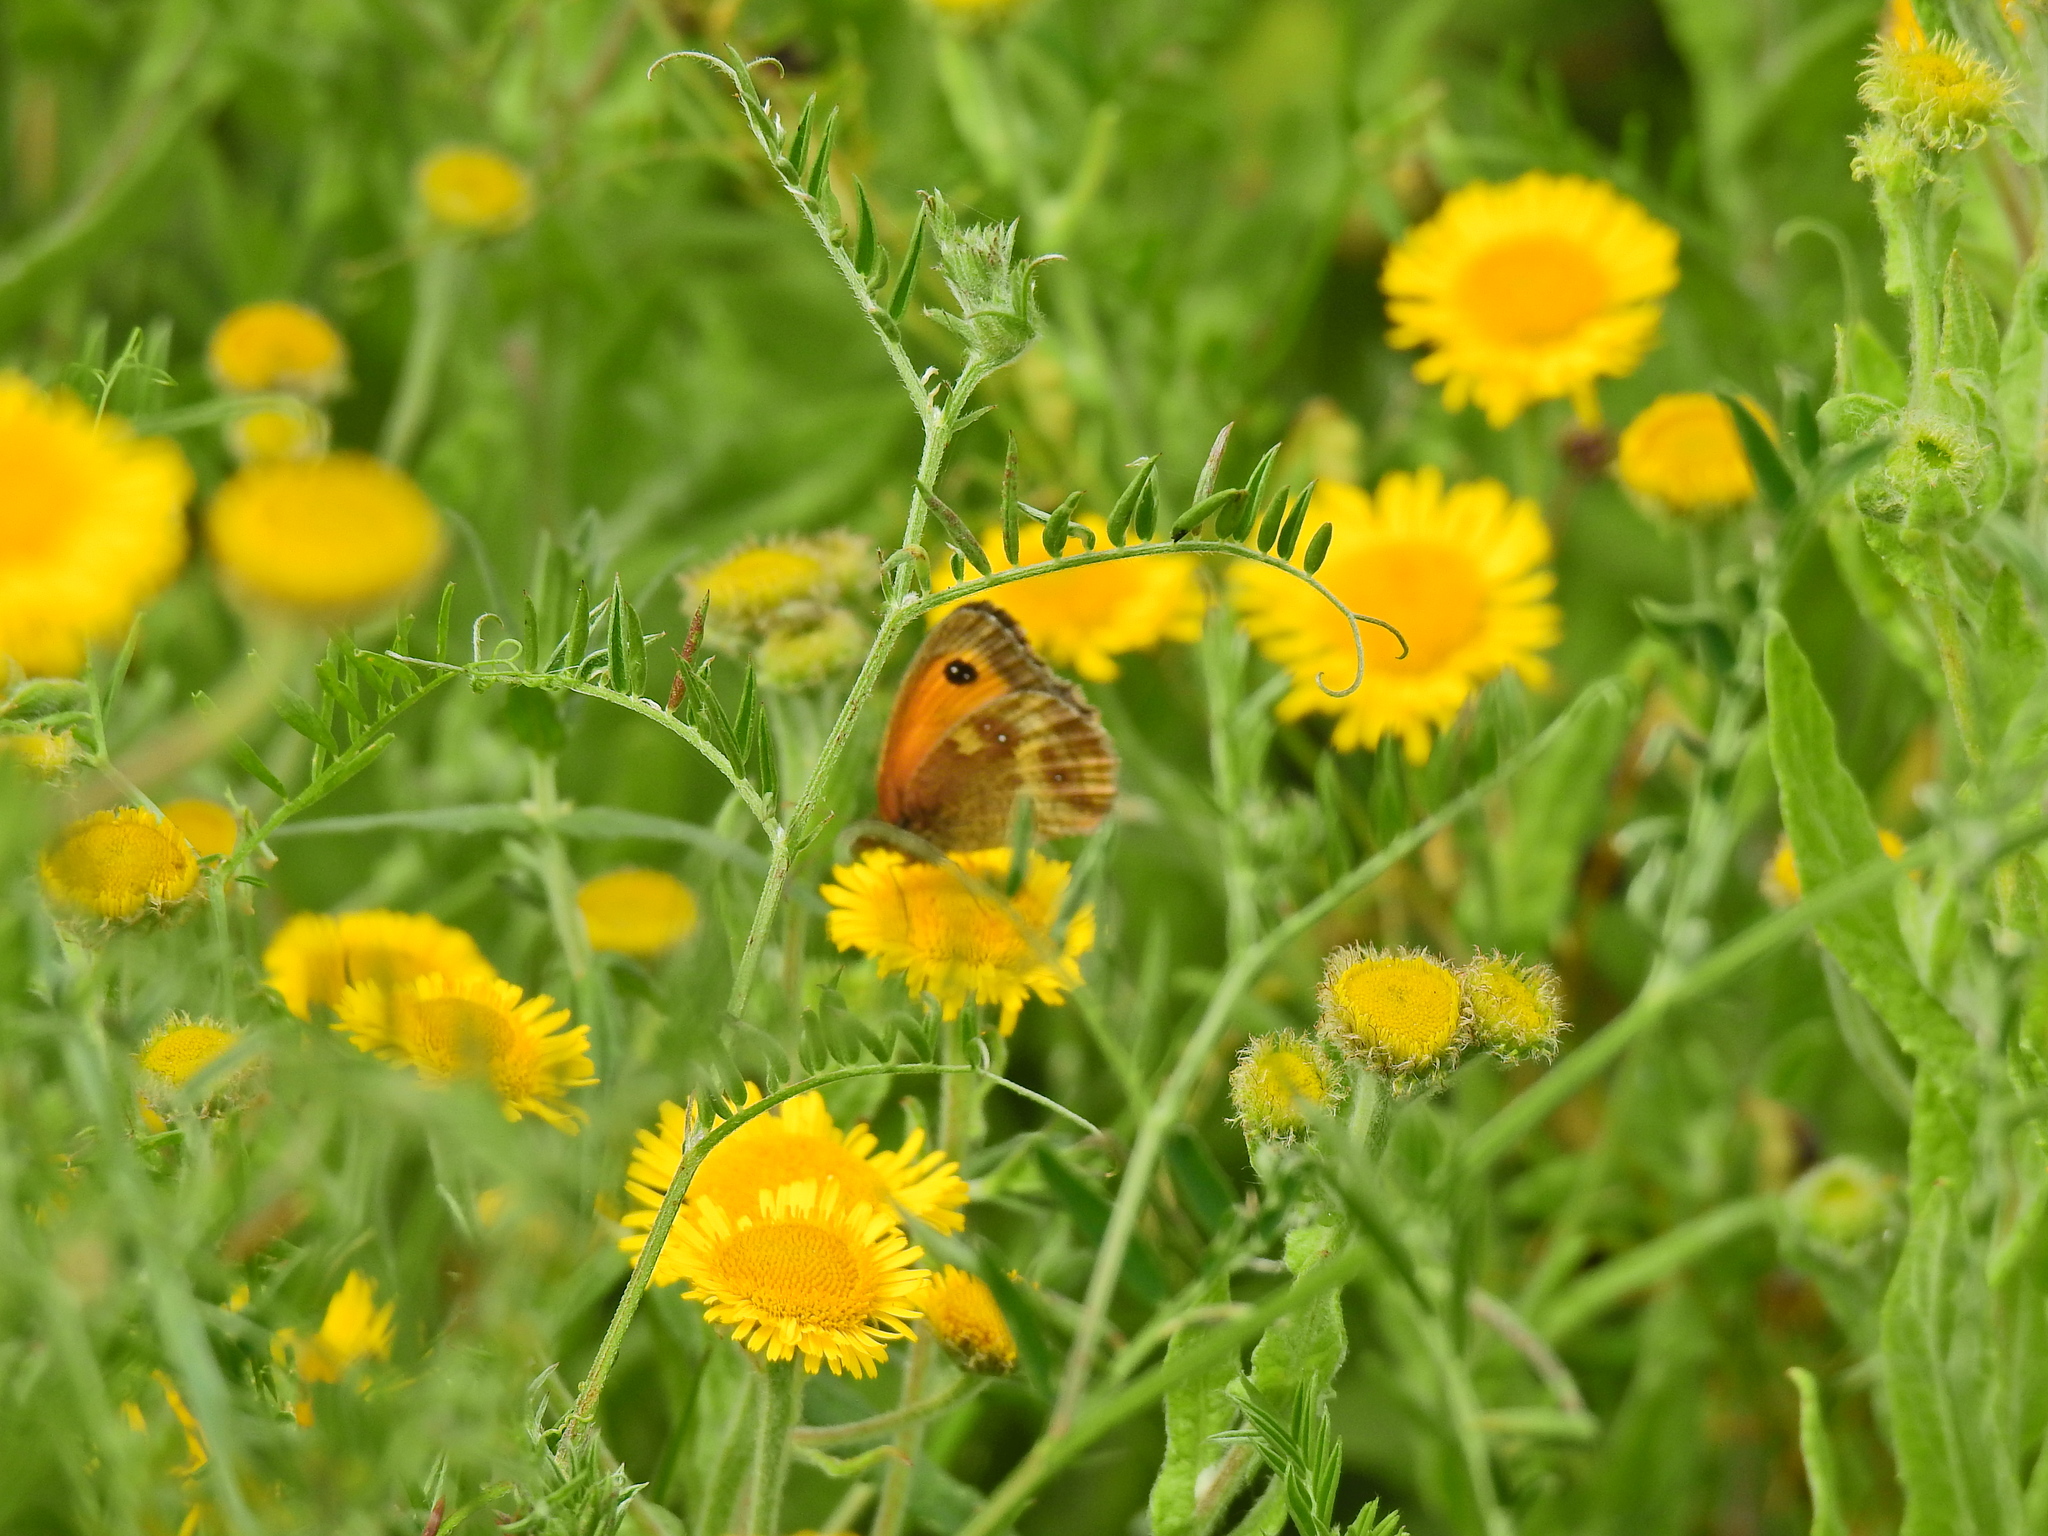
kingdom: Animalia
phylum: Arthropoda
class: Insecta
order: Lepidoptera
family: Nymphalidae
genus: Pyronia
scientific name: Pyronia tithonus
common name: Gatekeeper
